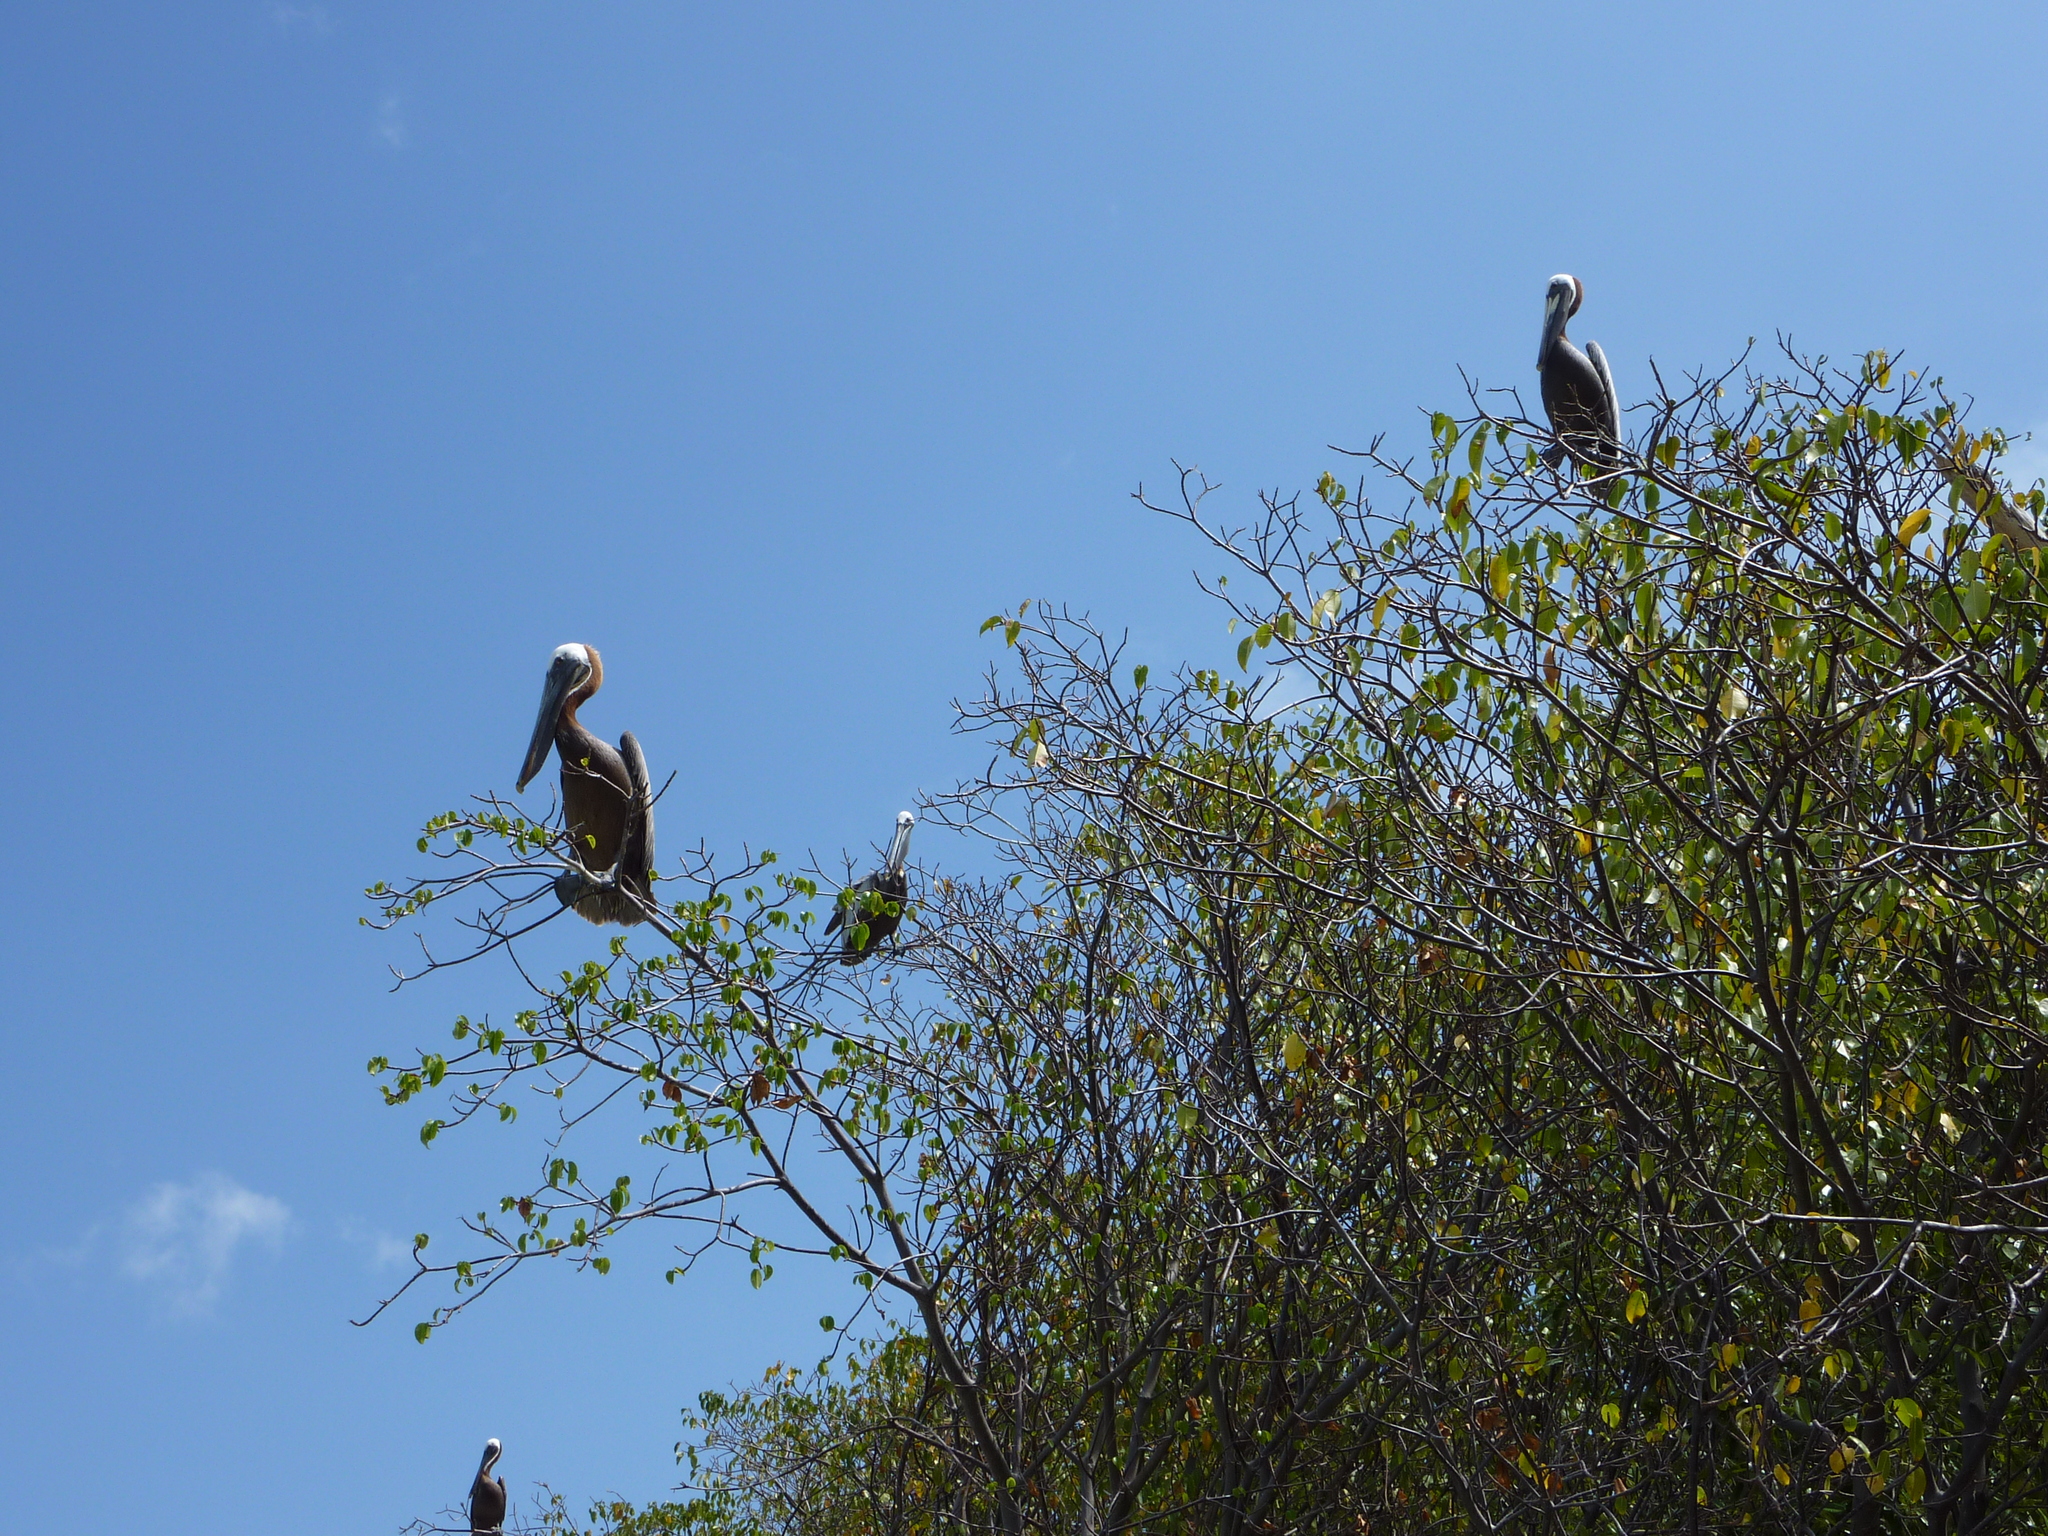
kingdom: Animalia
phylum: Chordata
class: Aves
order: Pelecaniformes
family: Pelecanidae
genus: Pelecanus
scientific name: Pelecanus occidentalis
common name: Brown pelican
